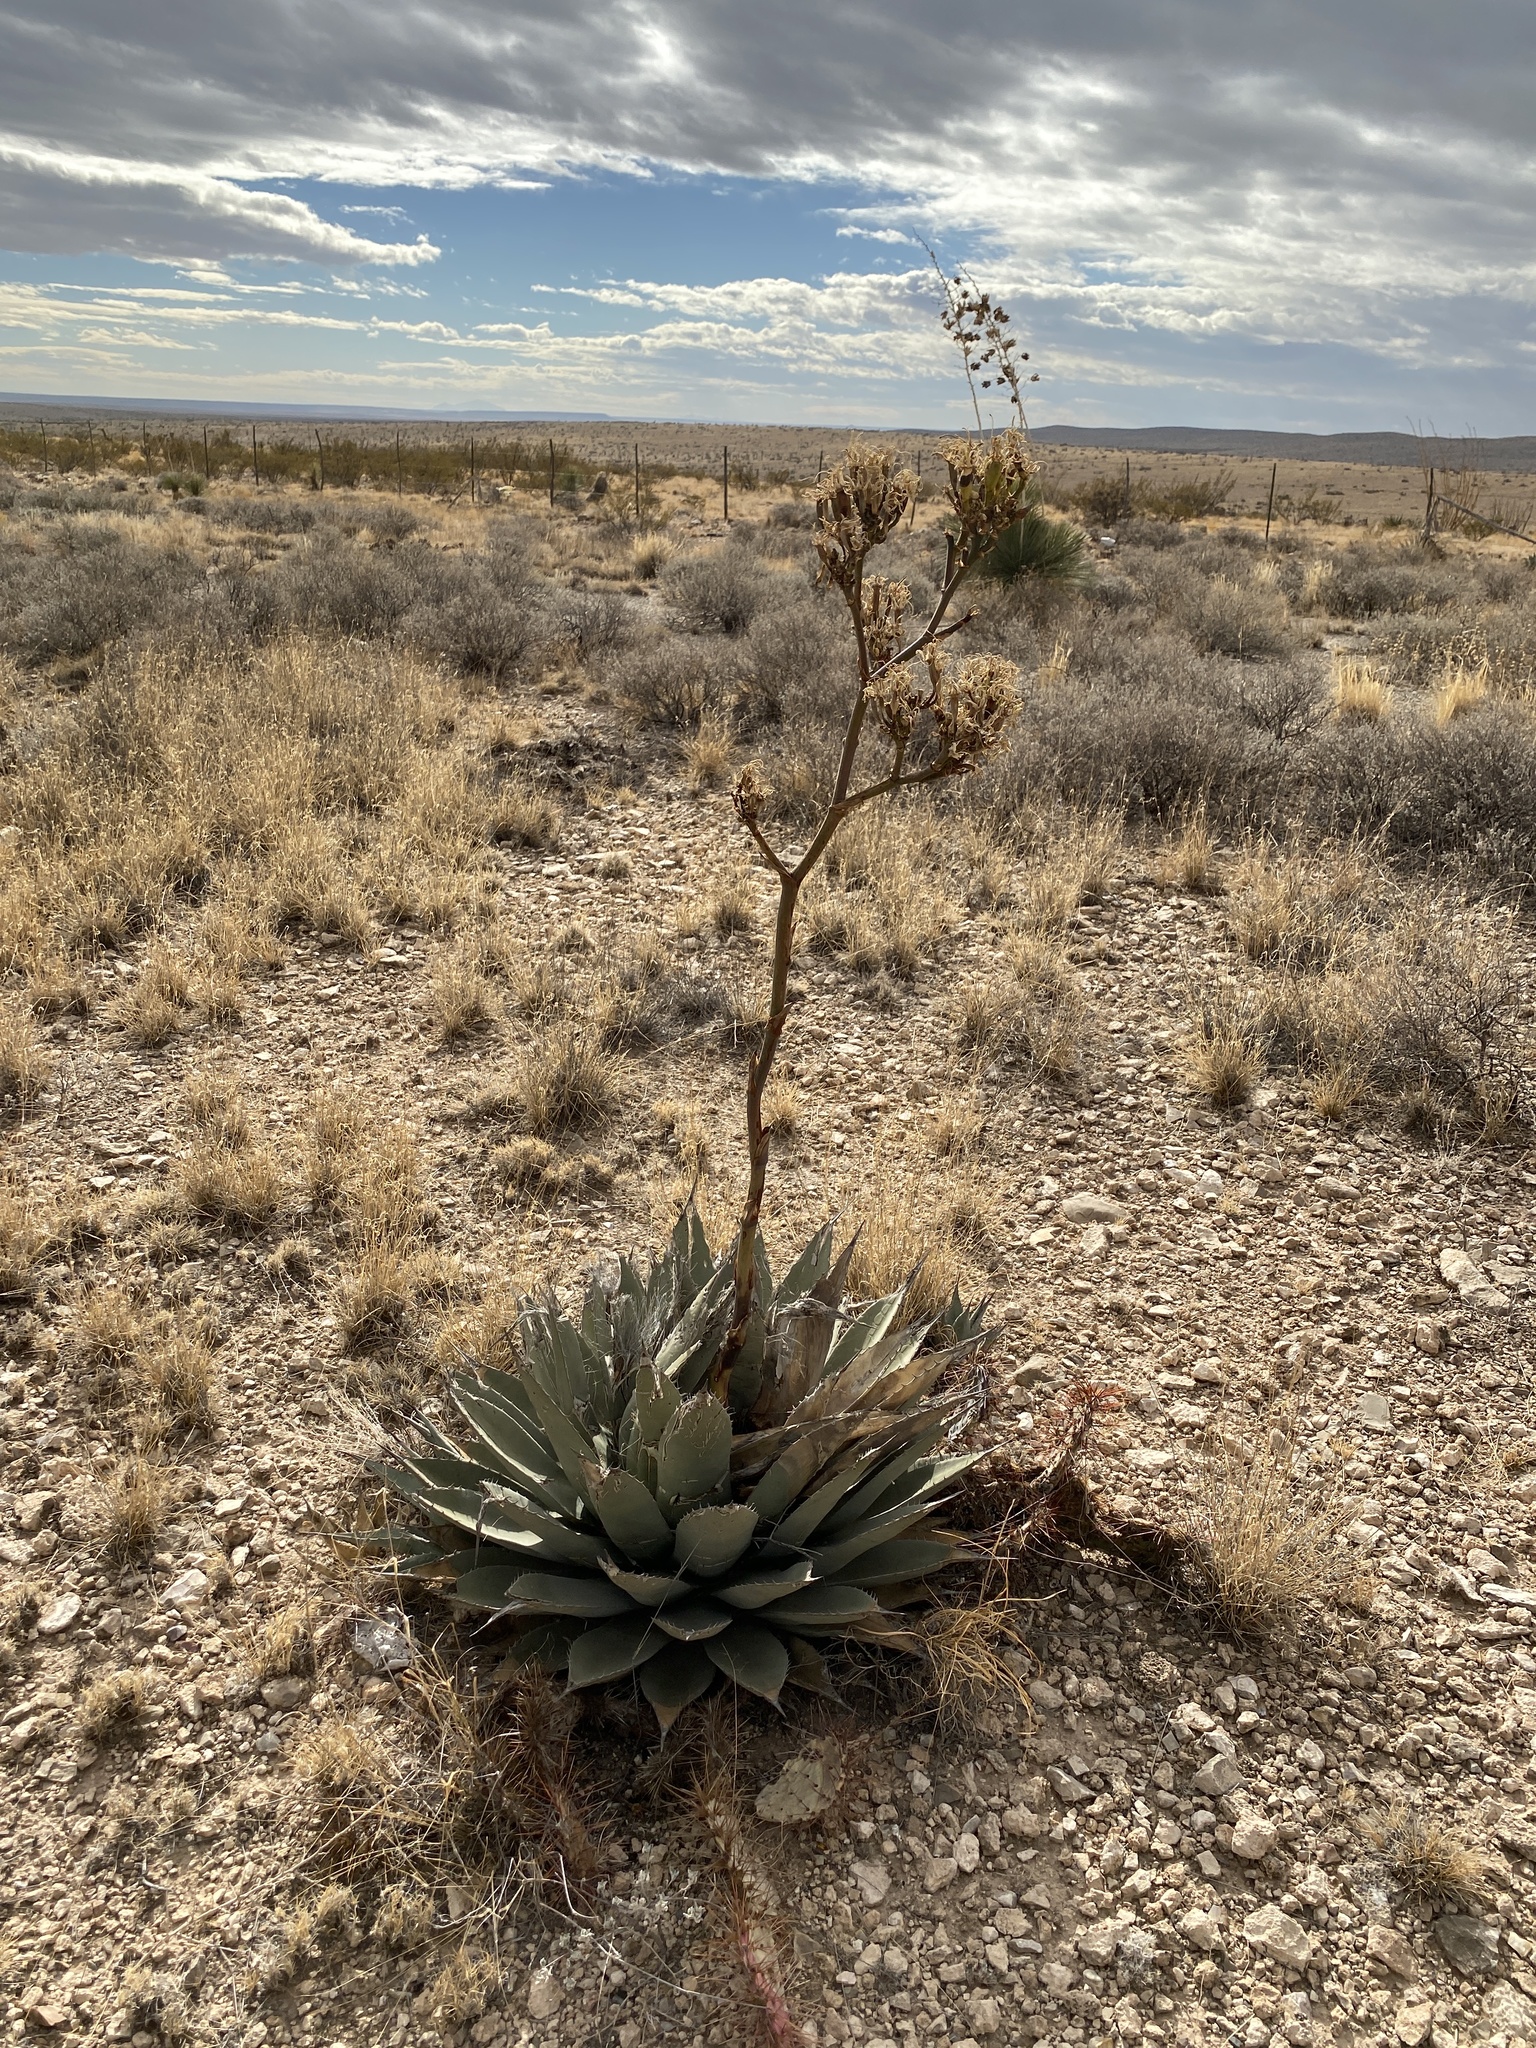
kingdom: Plantae
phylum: Tracheophyta
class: Liliopsida
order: Asparagales
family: Asparagaceae
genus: Agave
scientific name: Agave parryi
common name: Parry's agave
